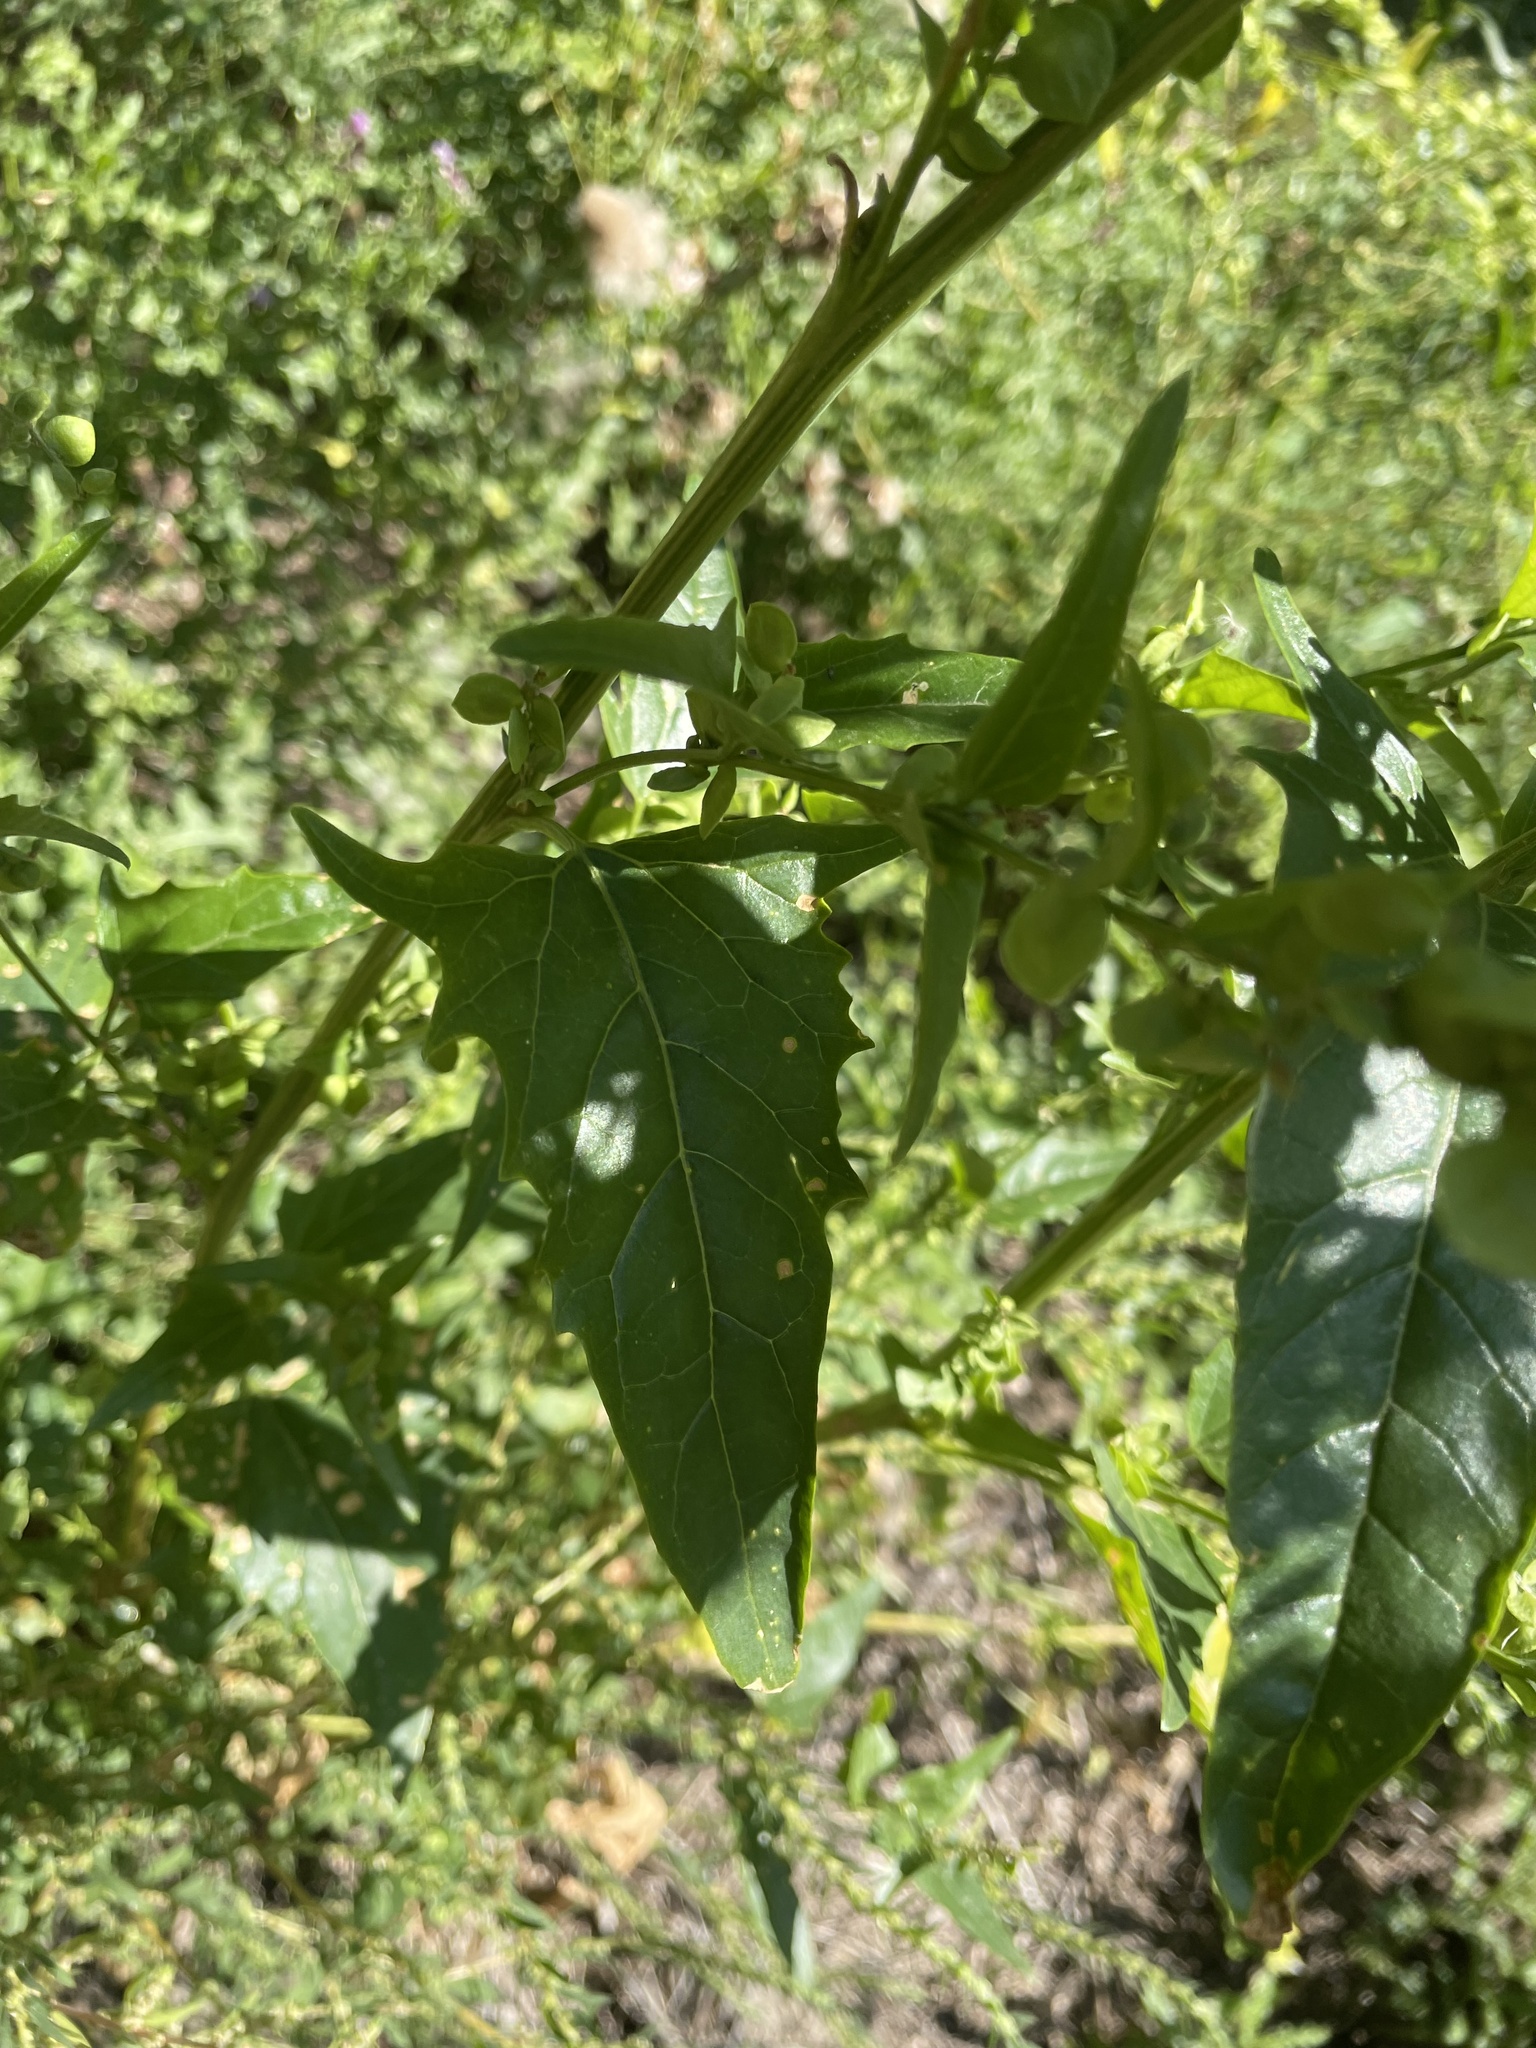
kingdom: Plantae
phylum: Tracheophyta
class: Magnoliopsida
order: Caryophyllales
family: Amaranthaceae
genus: Atriplex
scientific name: Atriplex hortensis
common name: Garden orache
